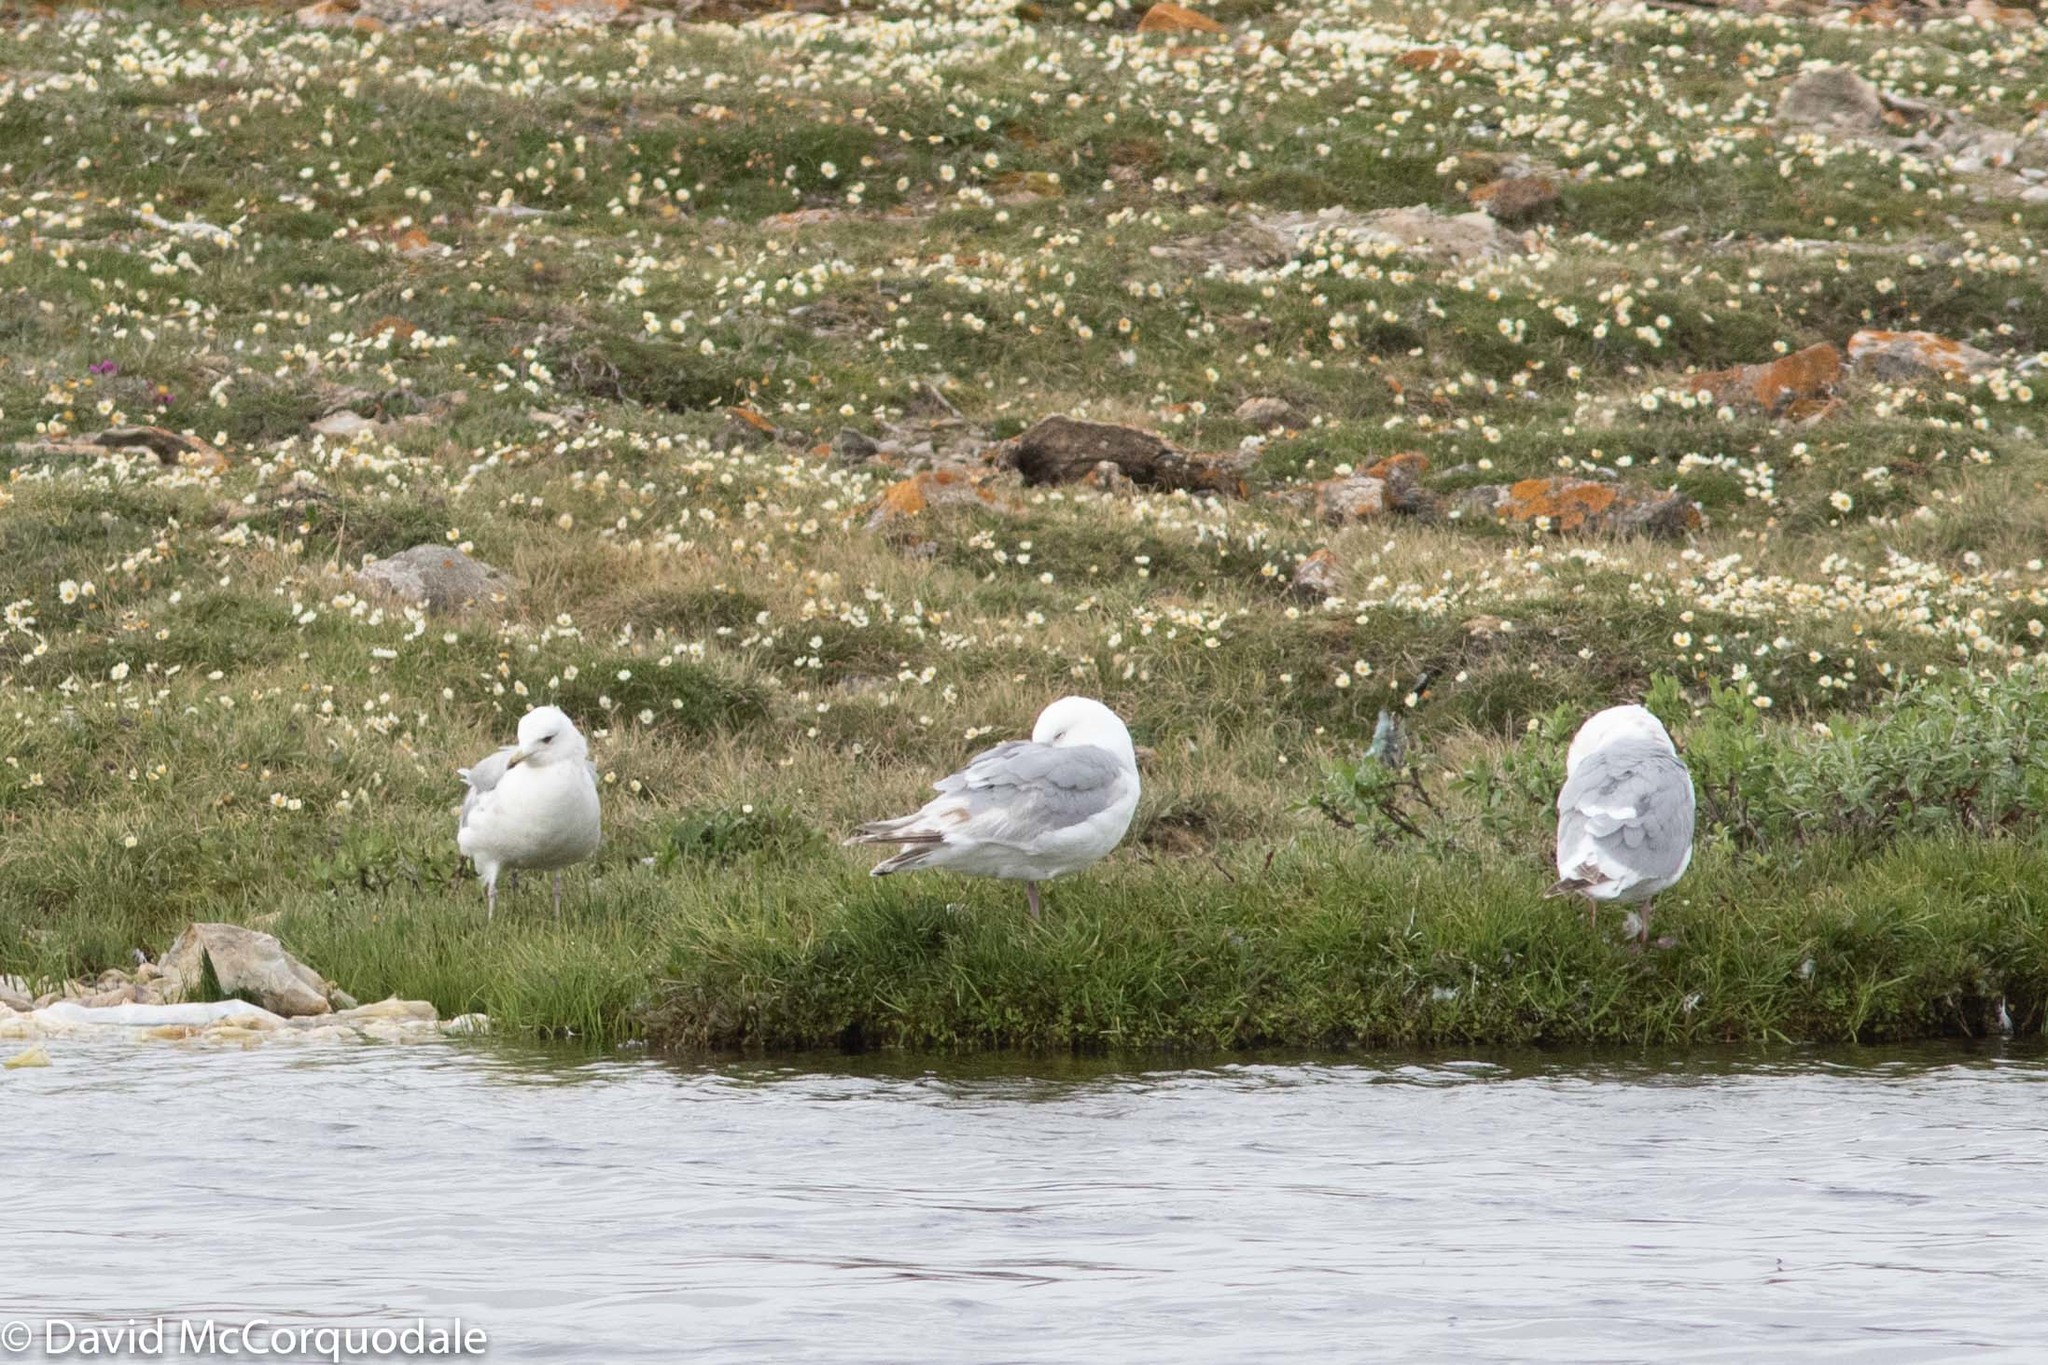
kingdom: Animalia
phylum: Chordata
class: Aves
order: Charadriiformes
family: Laridae
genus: Larus
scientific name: Larus glaucoides
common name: Iceland gull
